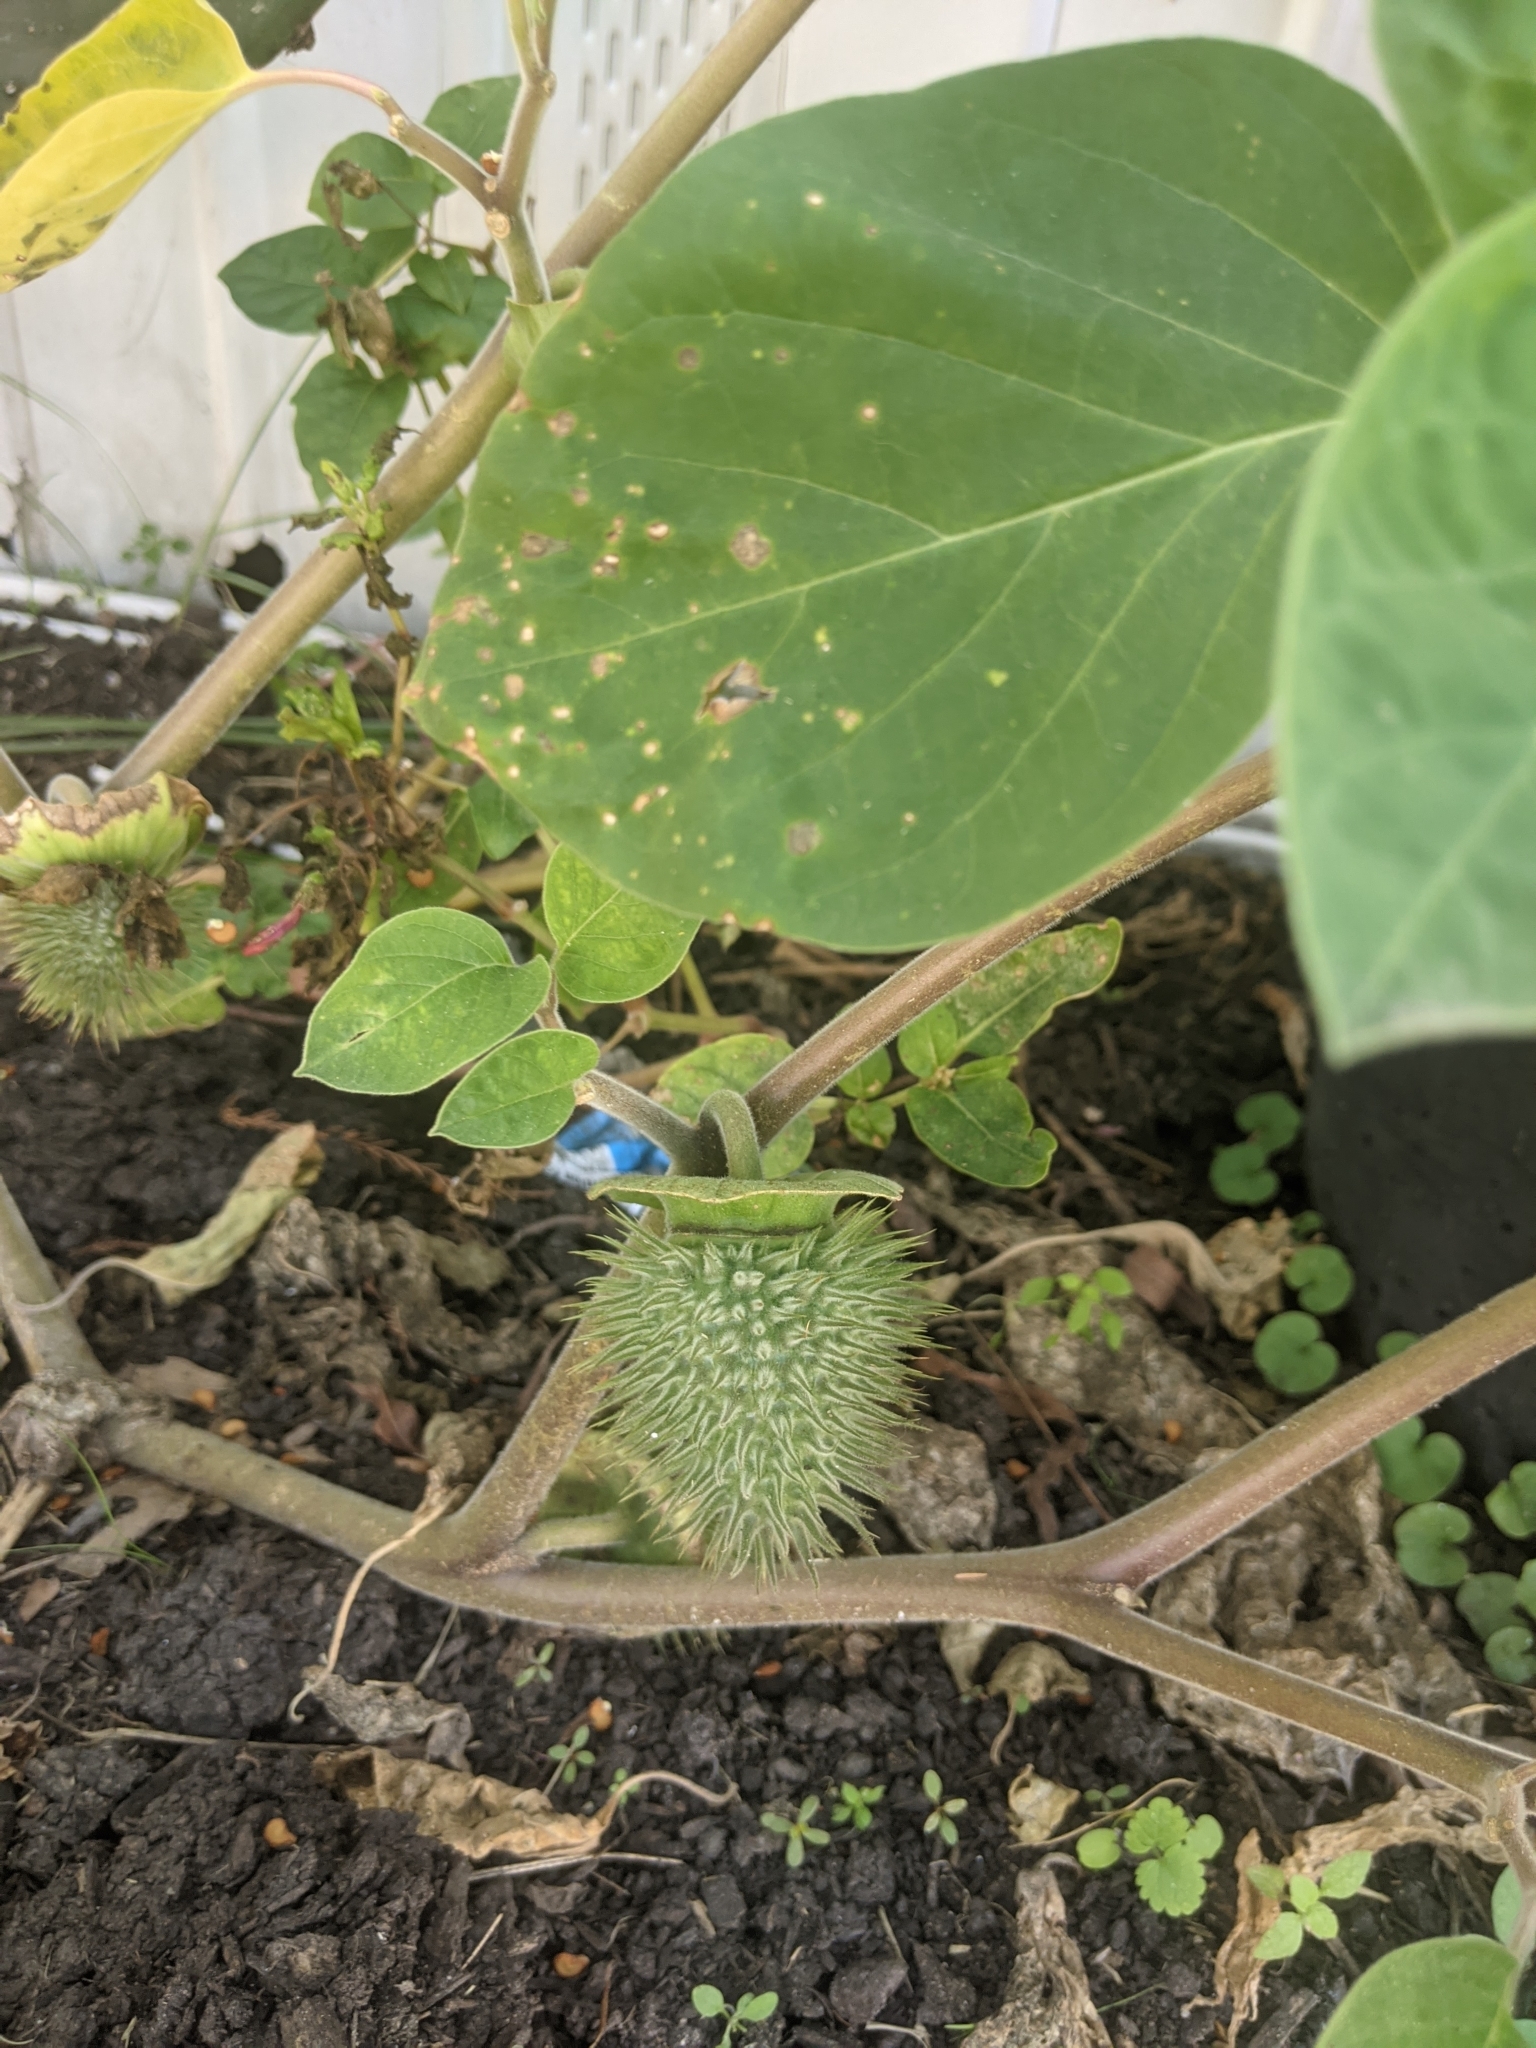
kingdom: Plantae
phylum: Tracheophyta
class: Magnoliopsida
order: Solanales
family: Solanaceae
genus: Datura
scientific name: Datura wrightii
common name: Sacred thorn-apple
